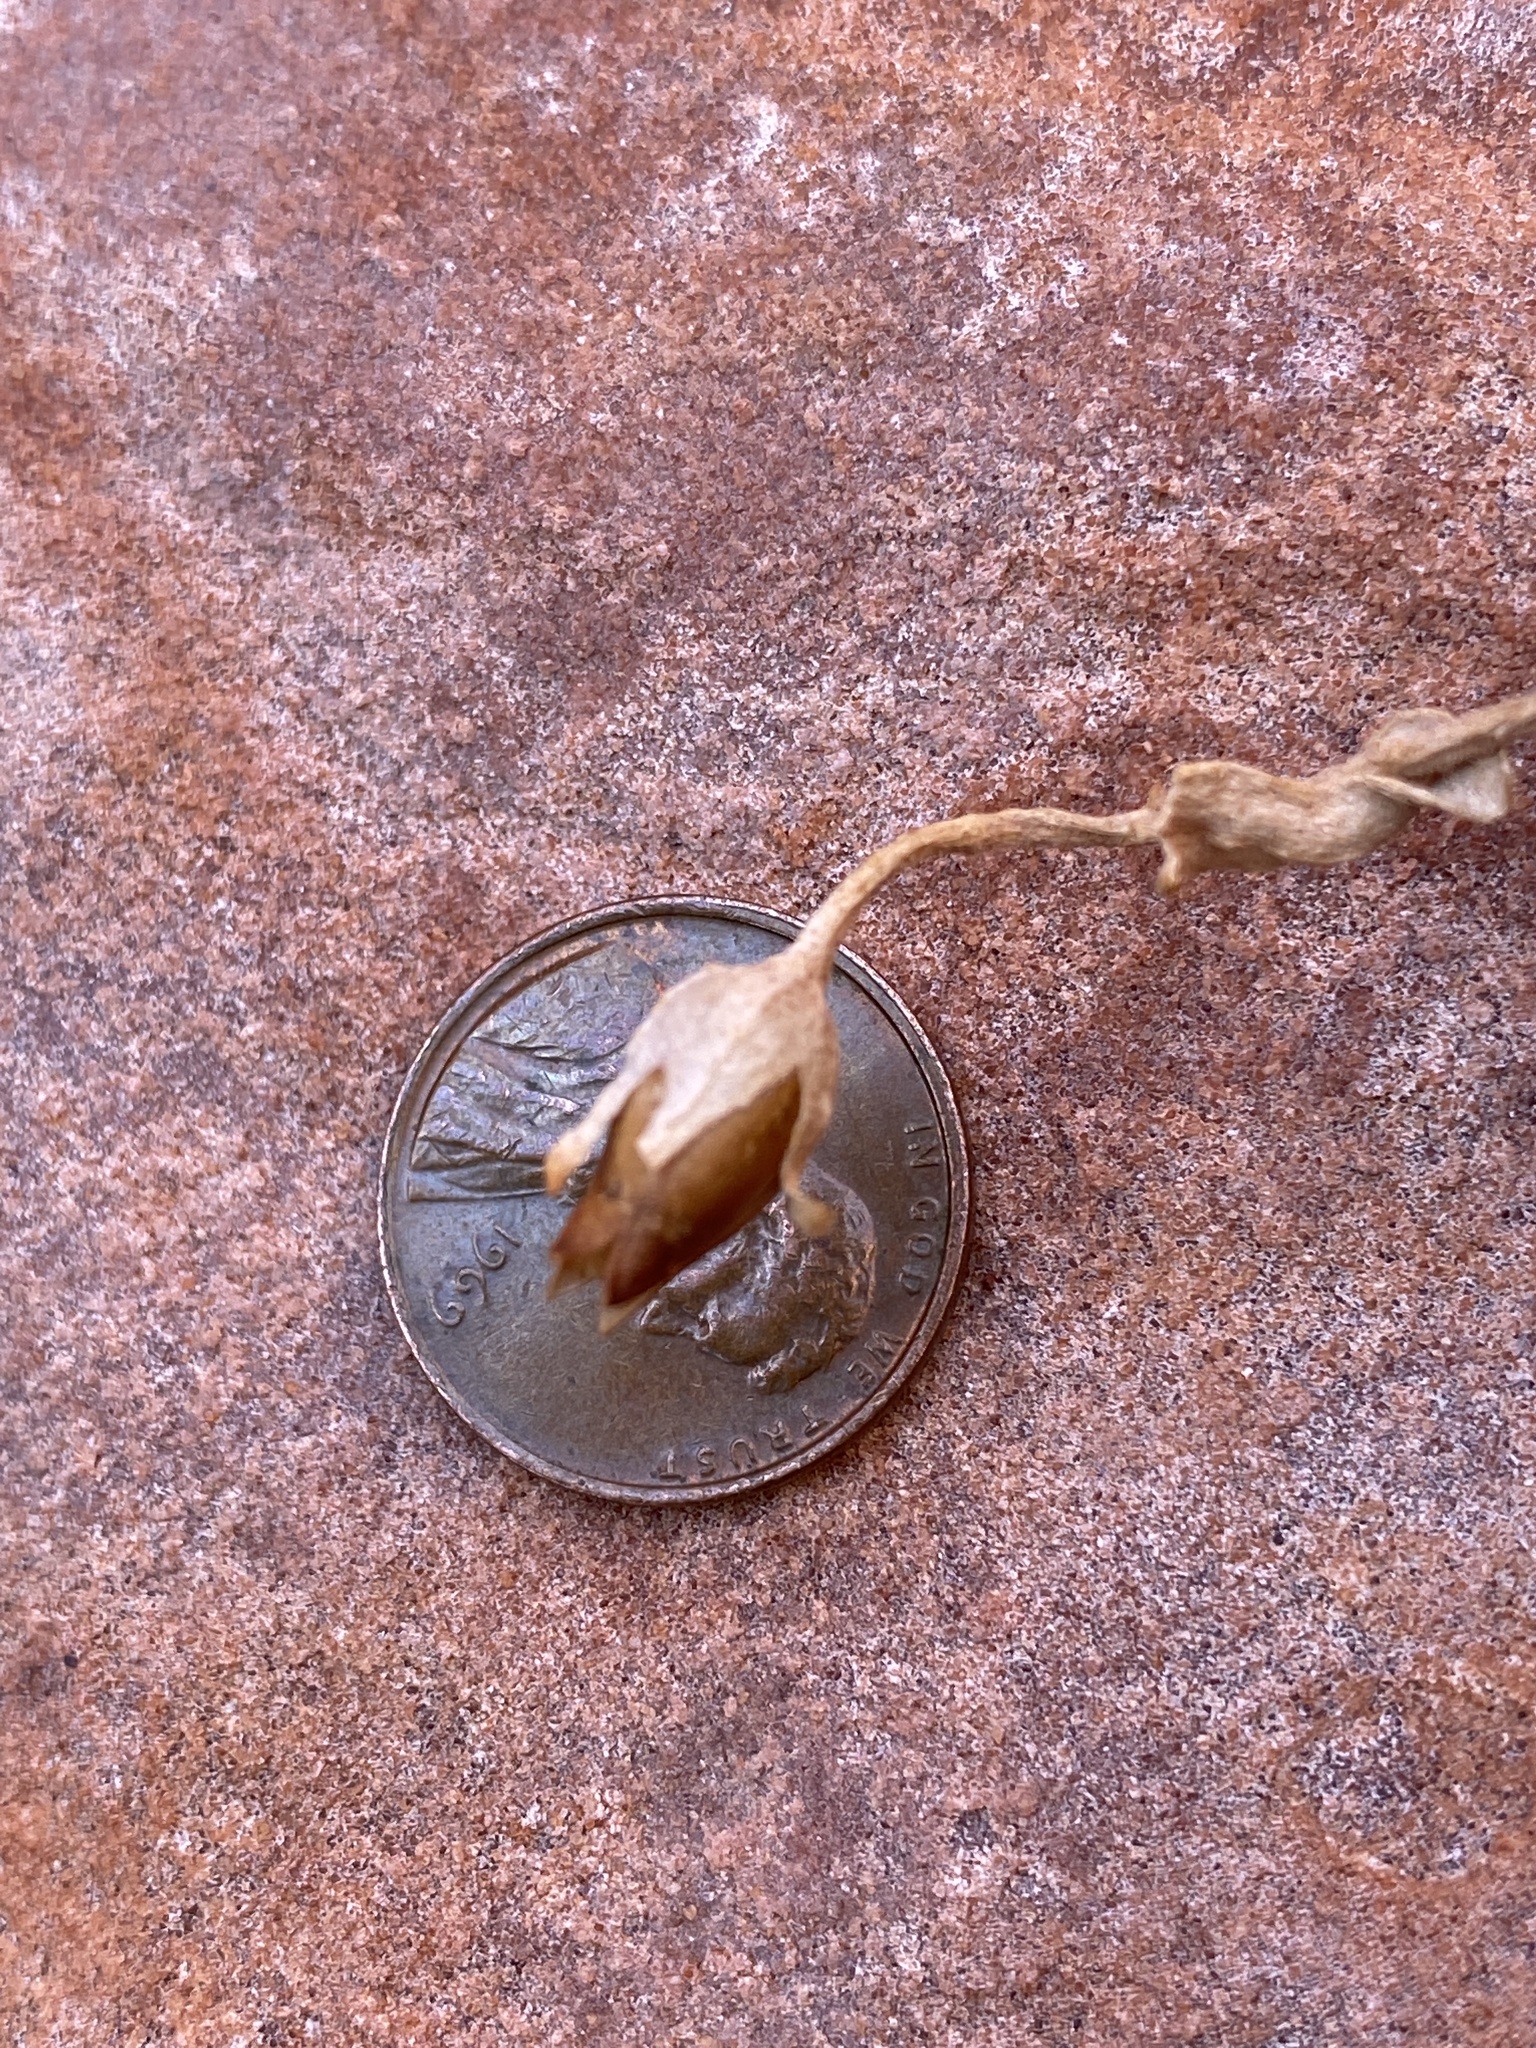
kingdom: Plantae
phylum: Tracheophyta
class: Magnoliopsida
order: Solanales
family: Solanaceae
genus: Nicotiana
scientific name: Nicotiana obtusifolia
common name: Desert tobacco
